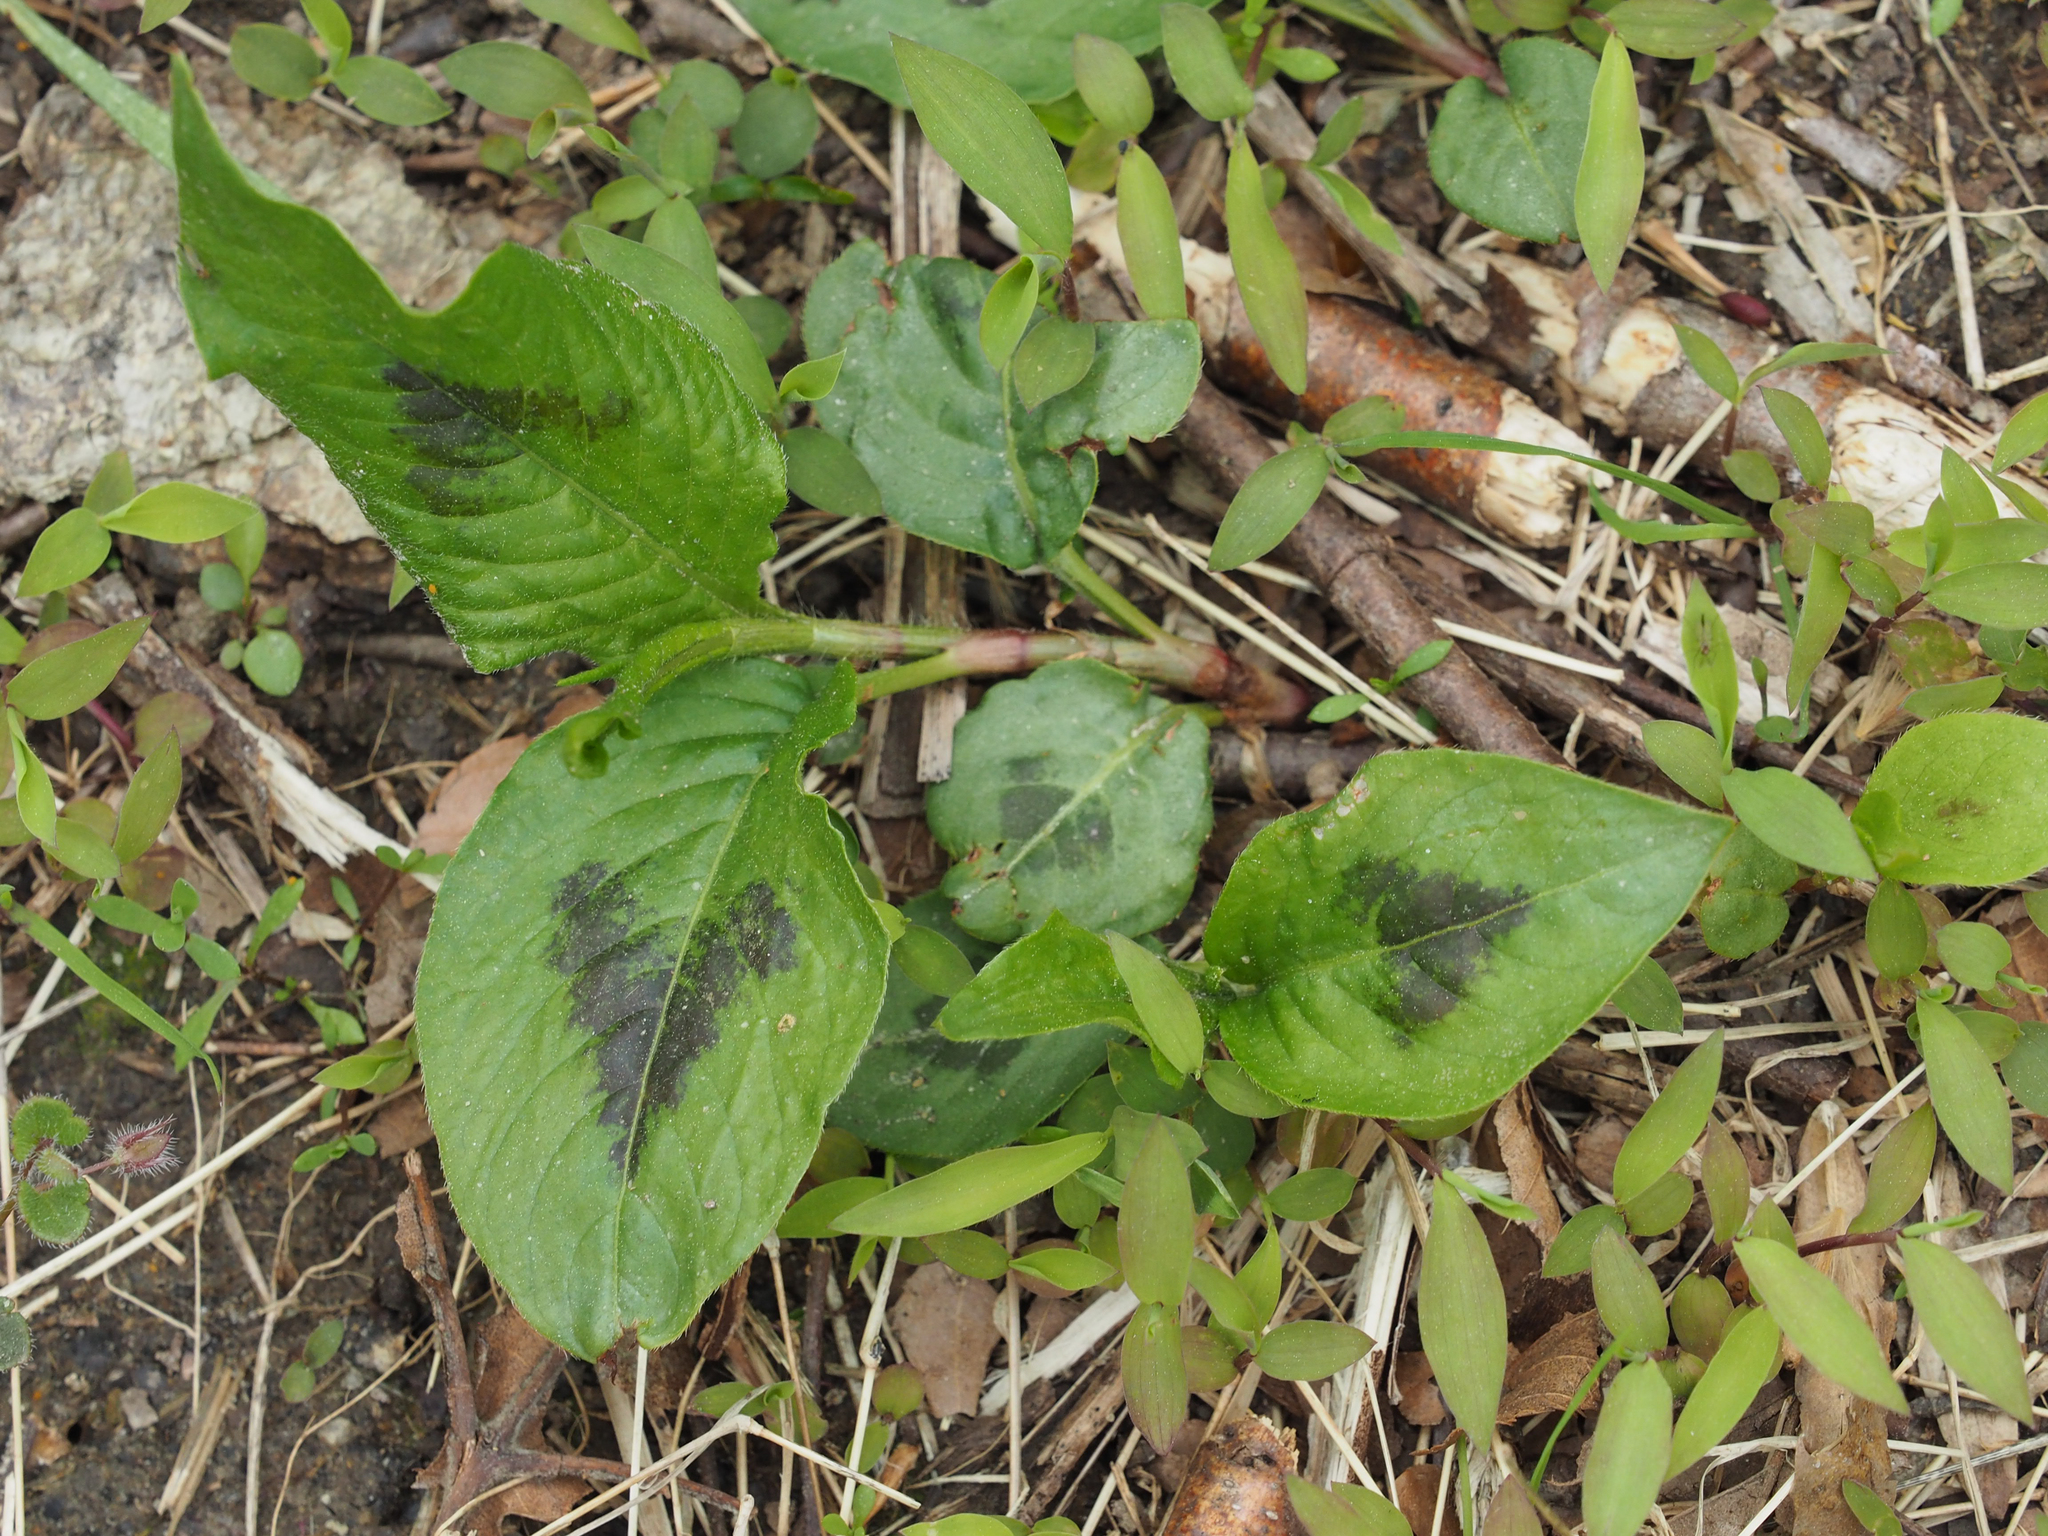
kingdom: Plantae
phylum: Tracheophyta
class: Magnoliopsida
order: Caryophyllales
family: Polygonaceae
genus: Persicaria
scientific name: Persicaria virginiana
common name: Jumpseed
